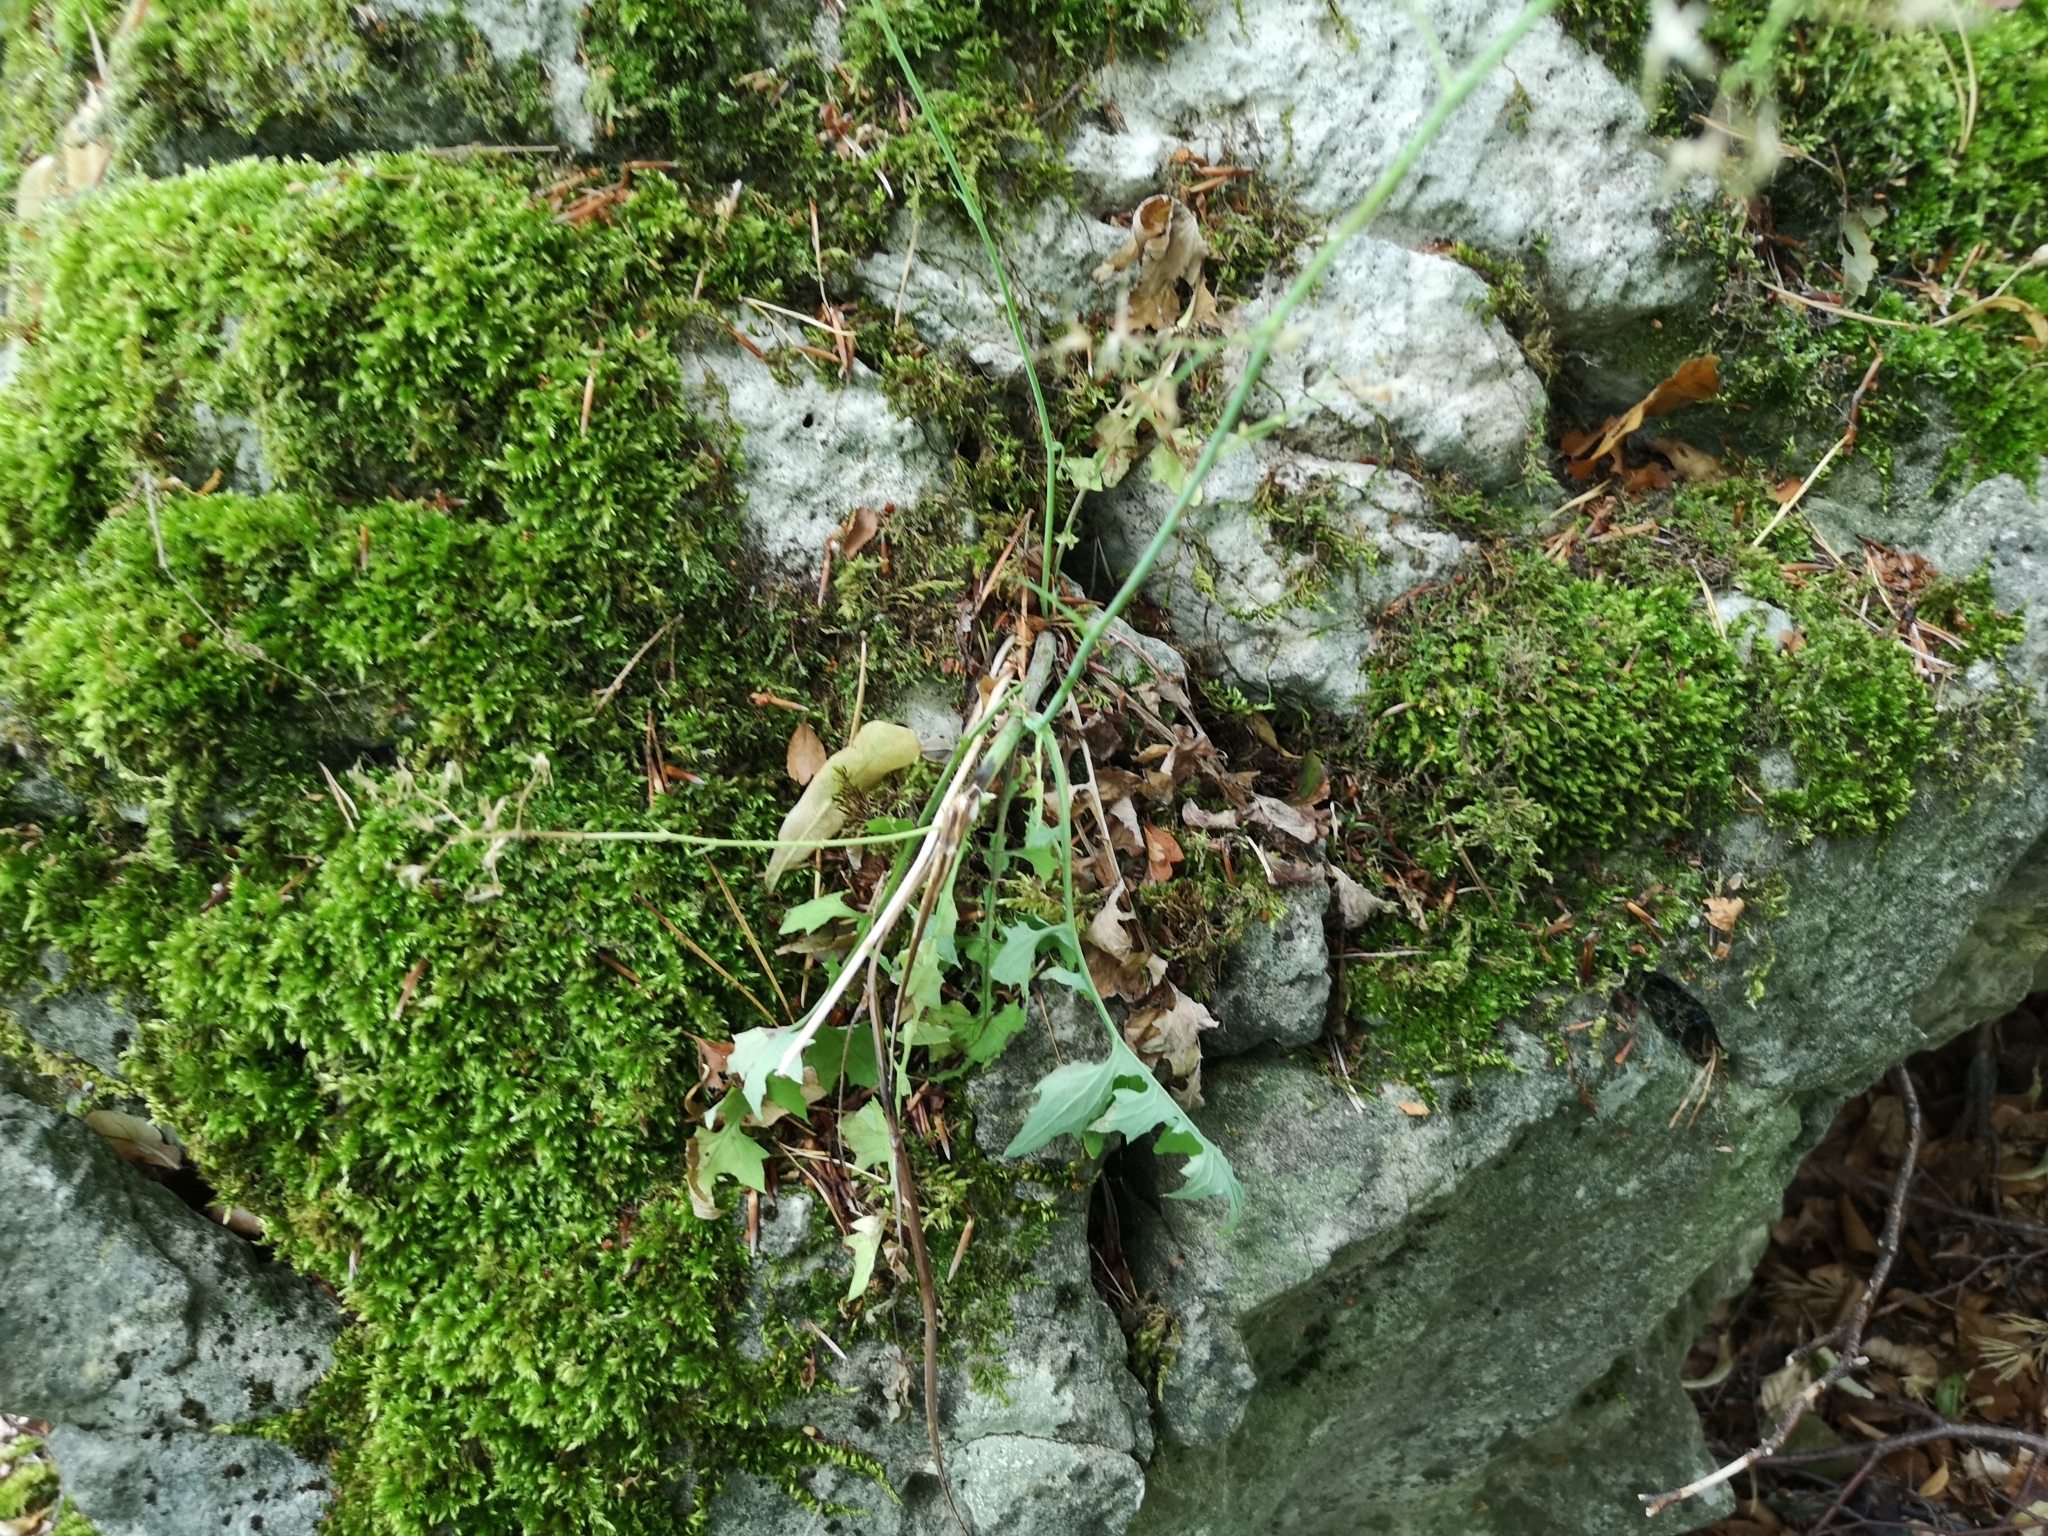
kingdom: Plantae
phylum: Tracheophyta
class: Magnoliopsida
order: Asterales
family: Asteraceae
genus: Mycelis
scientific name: Mycelis muralis
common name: Wall lettuce
